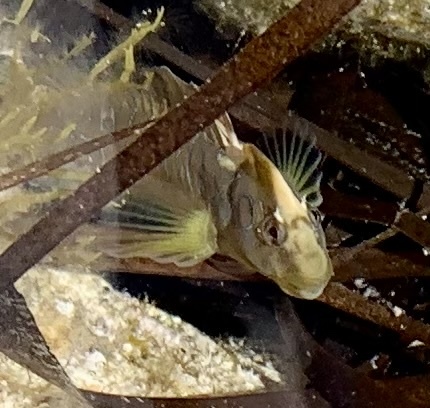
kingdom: Animalia
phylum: Chordata
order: Perciformes
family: Blenniidae
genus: Salaria
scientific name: Salaria pavo
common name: Peacock blenny
